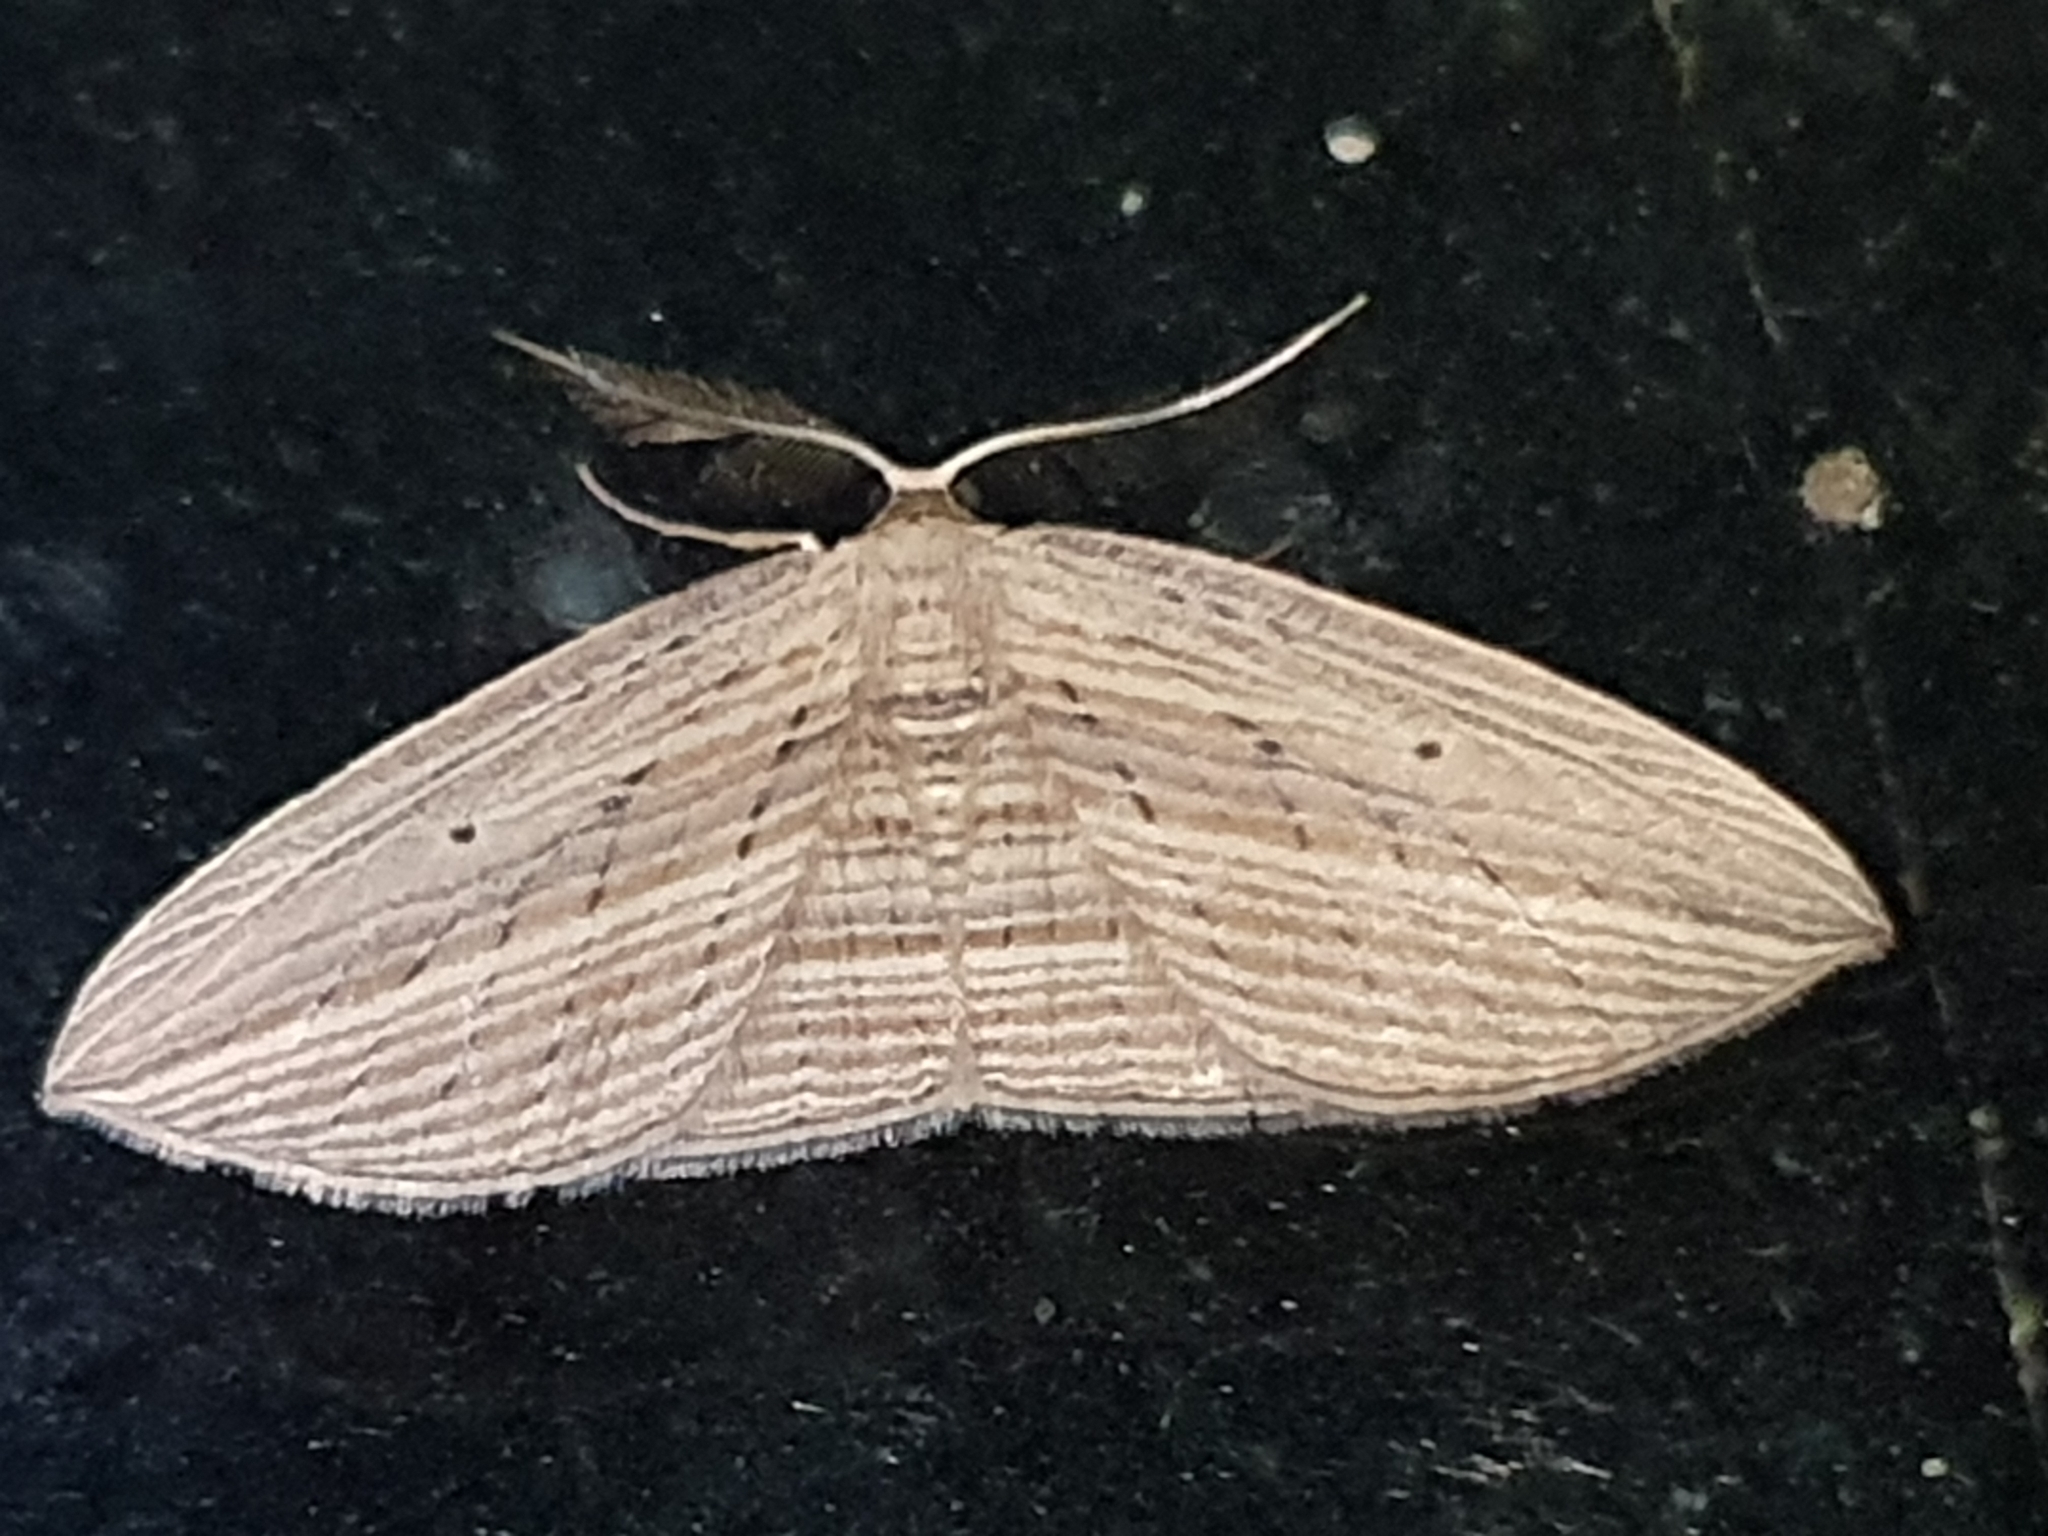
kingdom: Animalia
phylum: Arthropoda
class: Insecta
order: Lepidoptera
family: Geometridae
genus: Epiphryne
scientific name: Epiphryne verriculata
